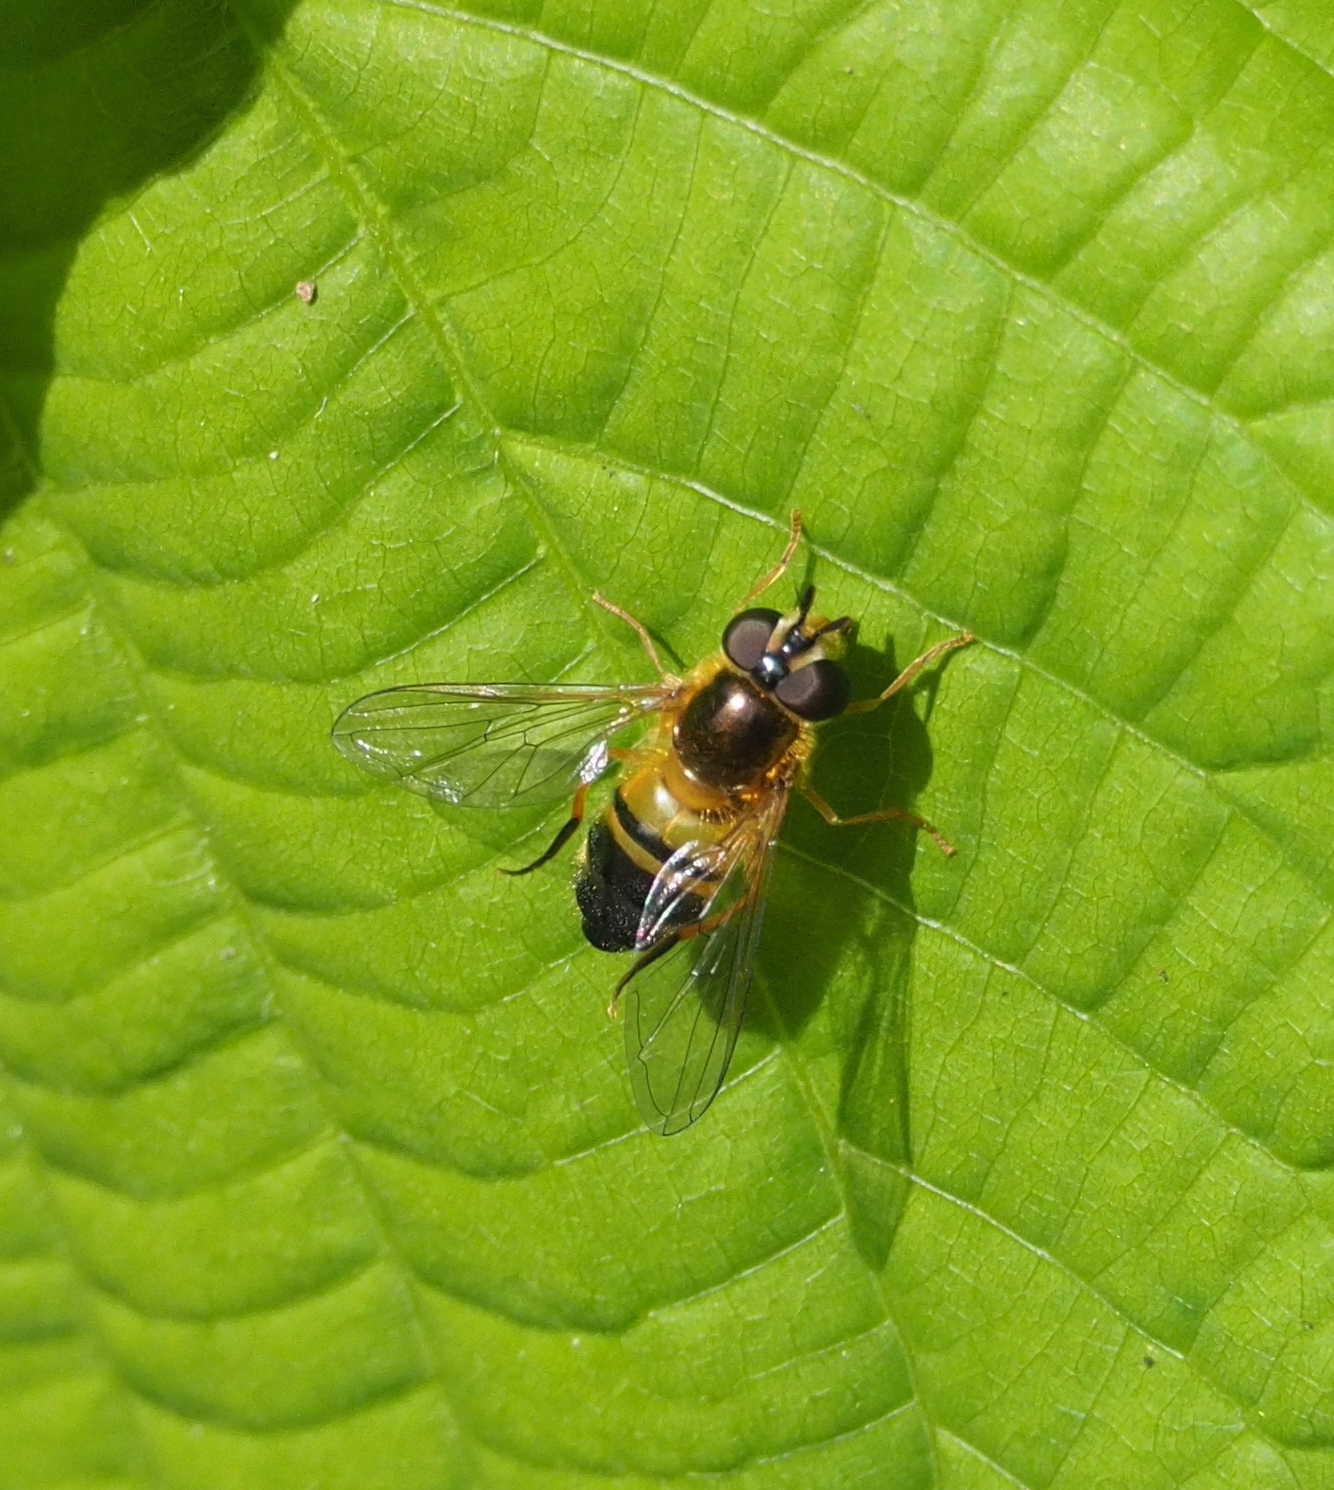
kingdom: Animalia
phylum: Arthropoda
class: Insecta
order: Diptera
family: Syrphidae
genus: Epistrophe
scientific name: Epistrophe eligans
